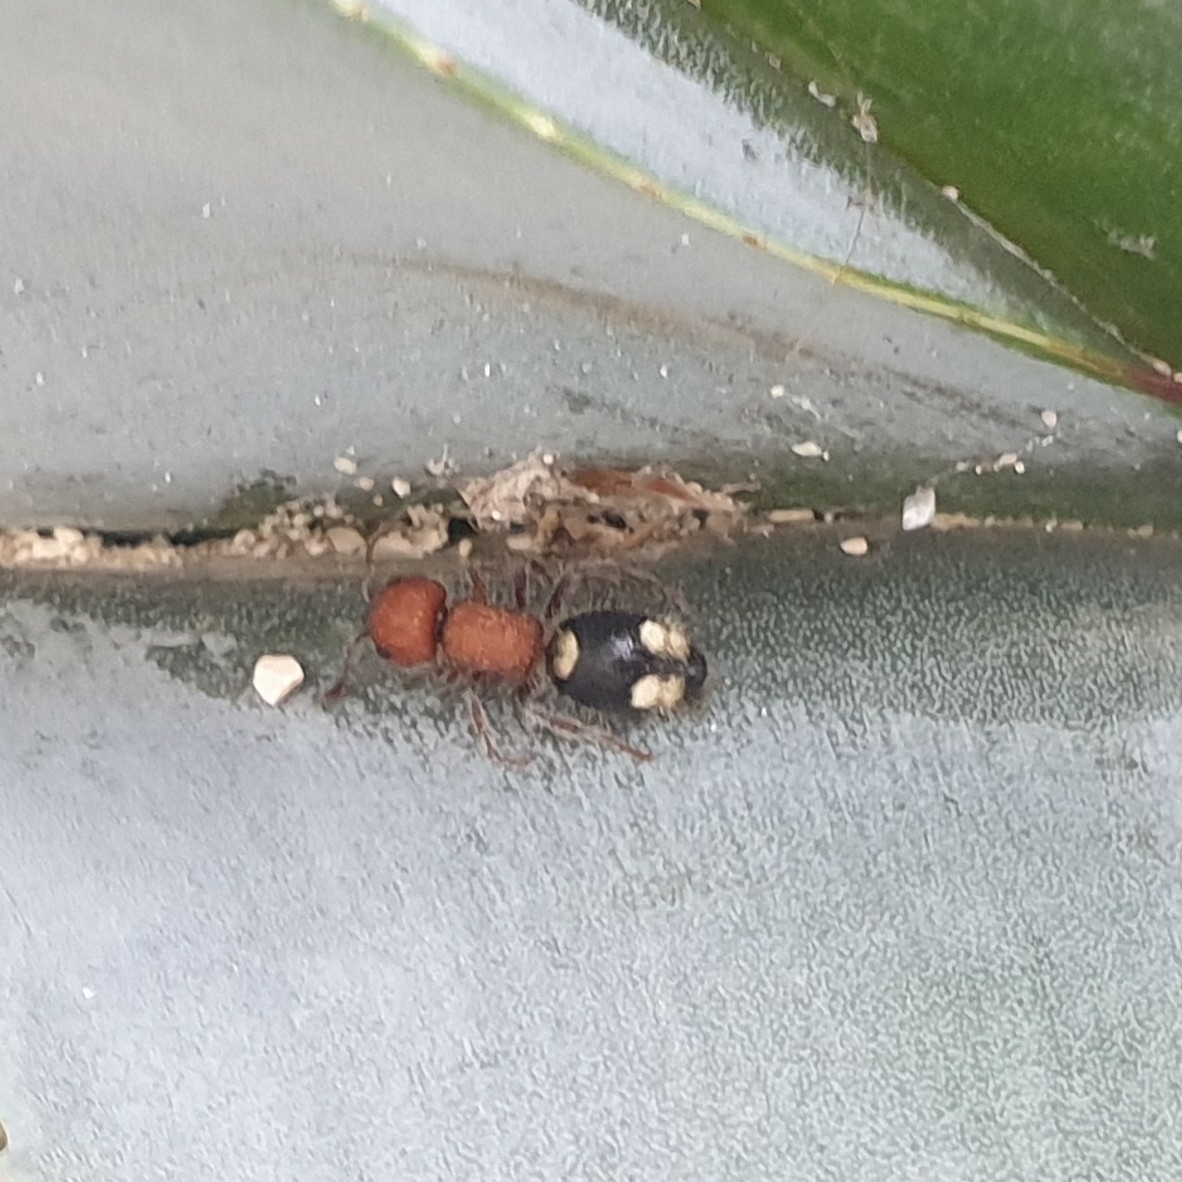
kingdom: Animalia
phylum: Arthropoda
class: Insecta
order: Hymenoptera
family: Mutillidae
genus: Mutilla
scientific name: Mutilla quinquemaculata
